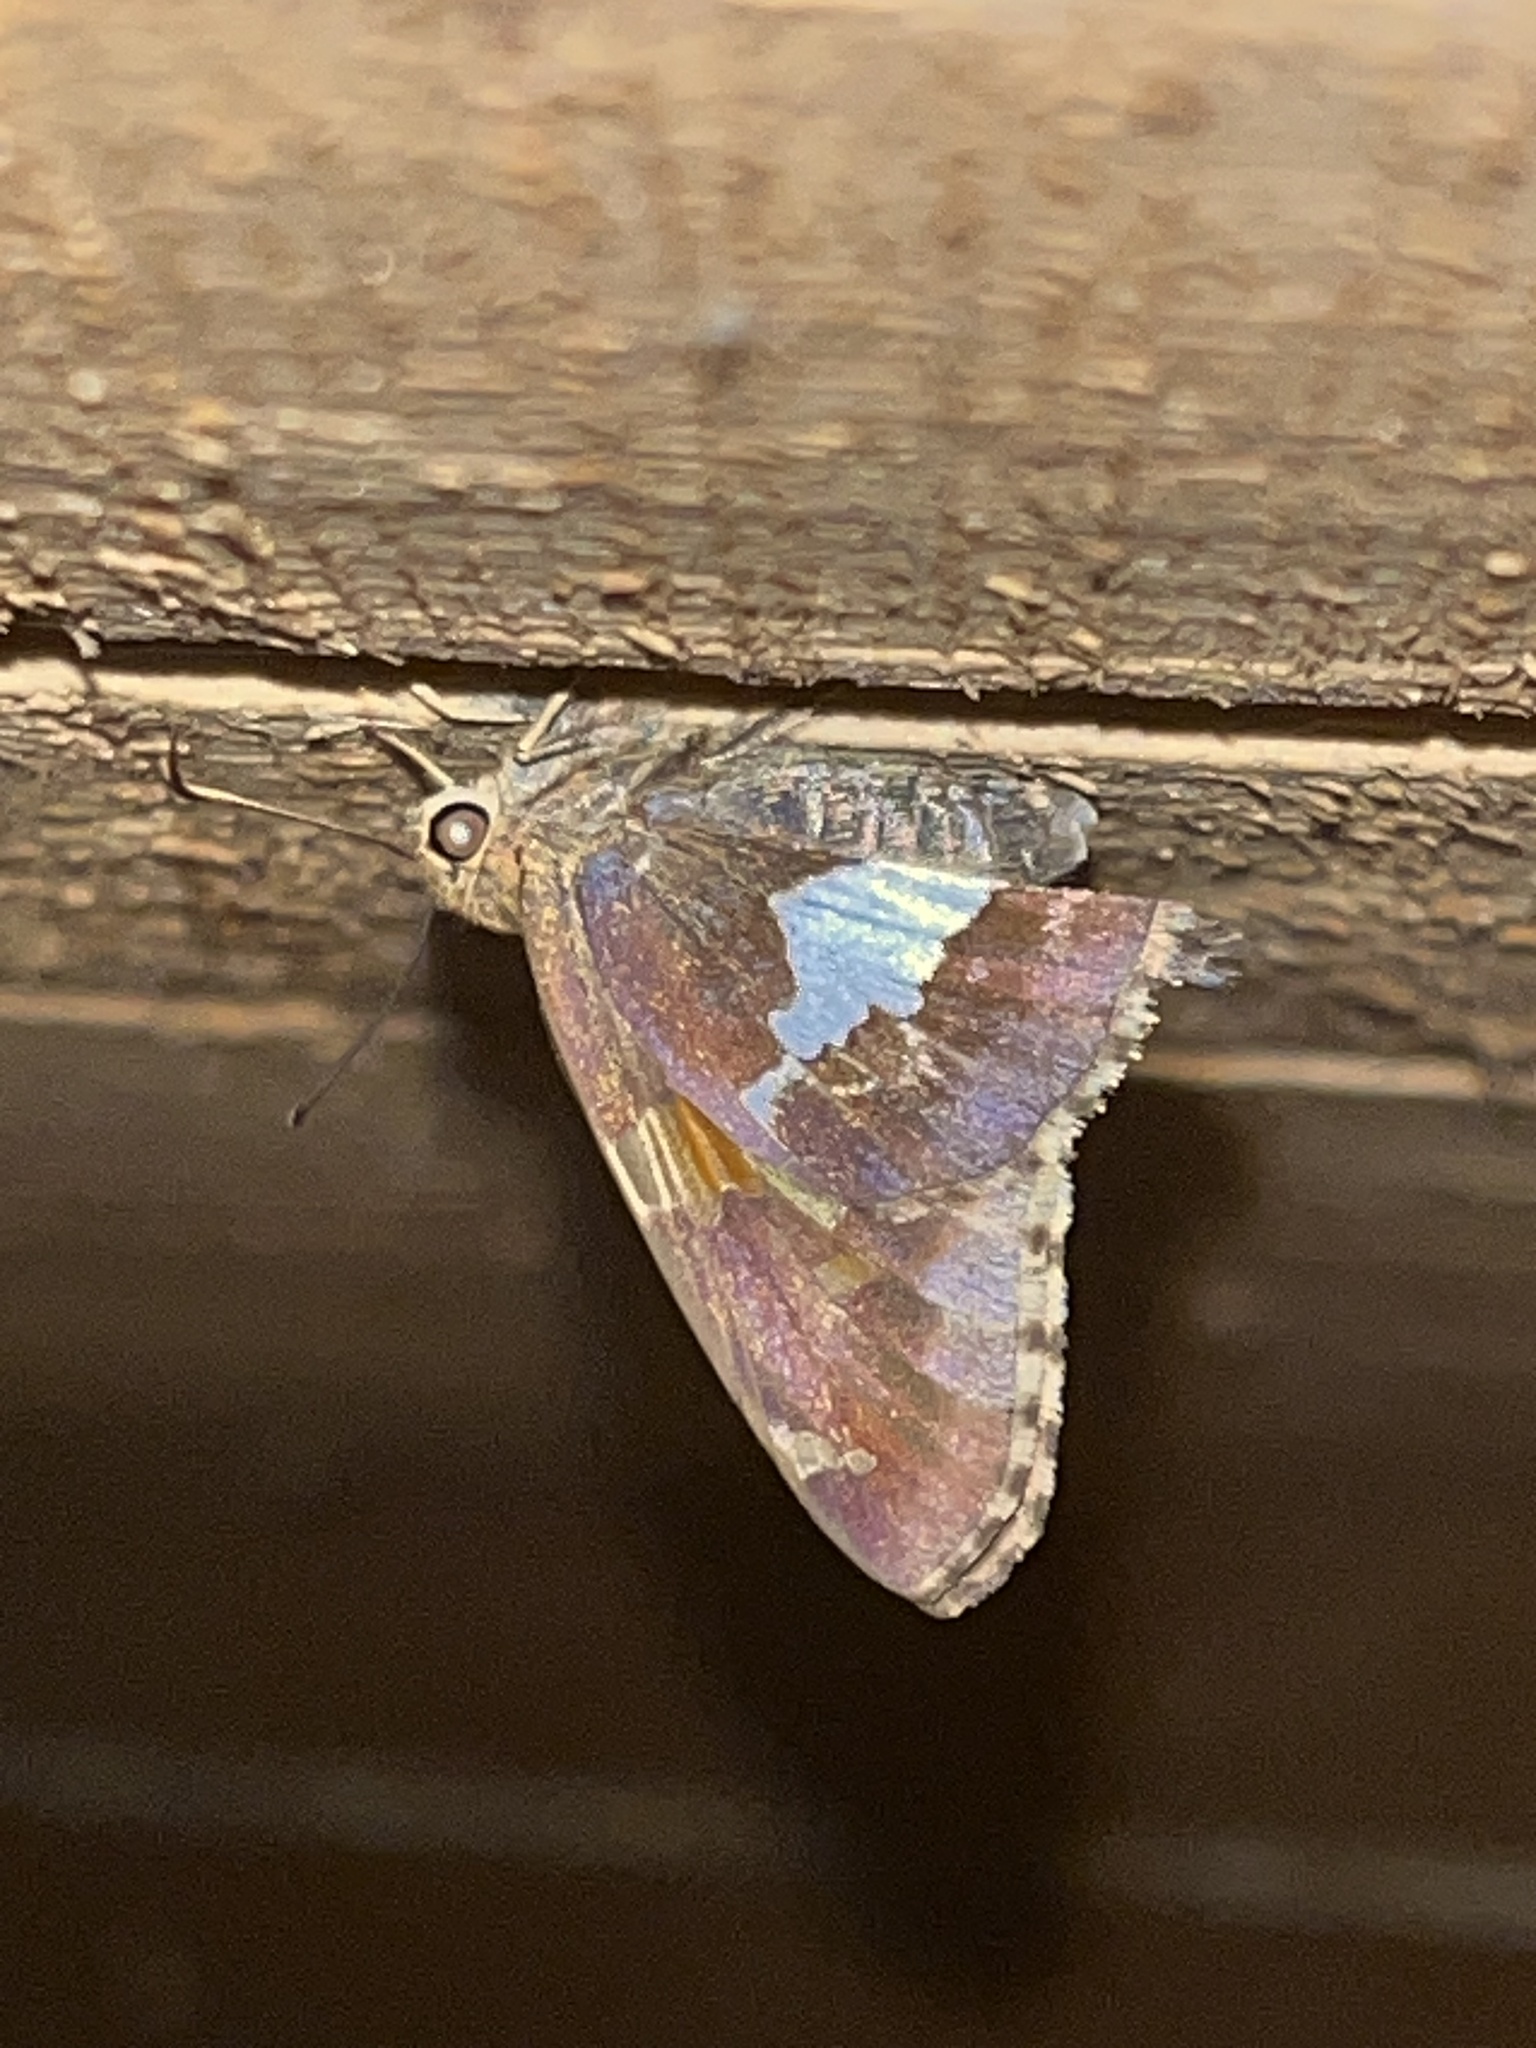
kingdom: Animalia
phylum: Arthropoda
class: Insecta
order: Lepidoptera
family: Hesperiidae
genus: Epargyreus
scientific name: Epargyreus clarus
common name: Silver-spotted skipper
